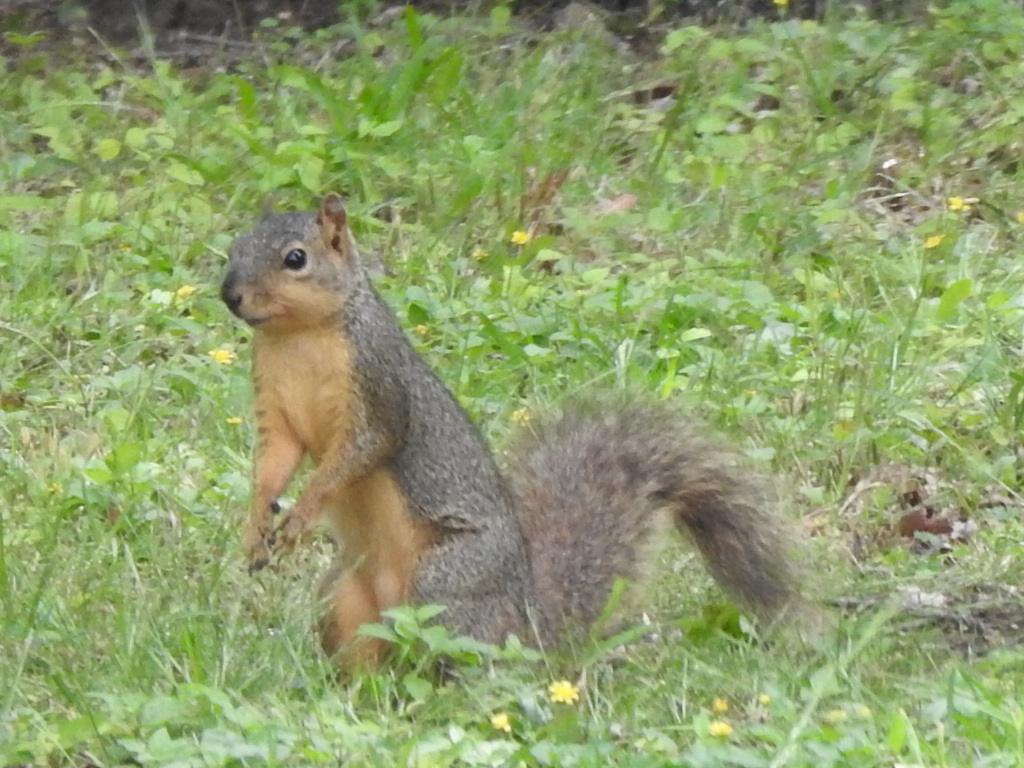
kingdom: Animalia
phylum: Chordata
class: Mammalia
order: Rodentia
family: Sciuridae
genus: Sciurus
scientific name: Sciurus niger
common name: Fox squirrel
